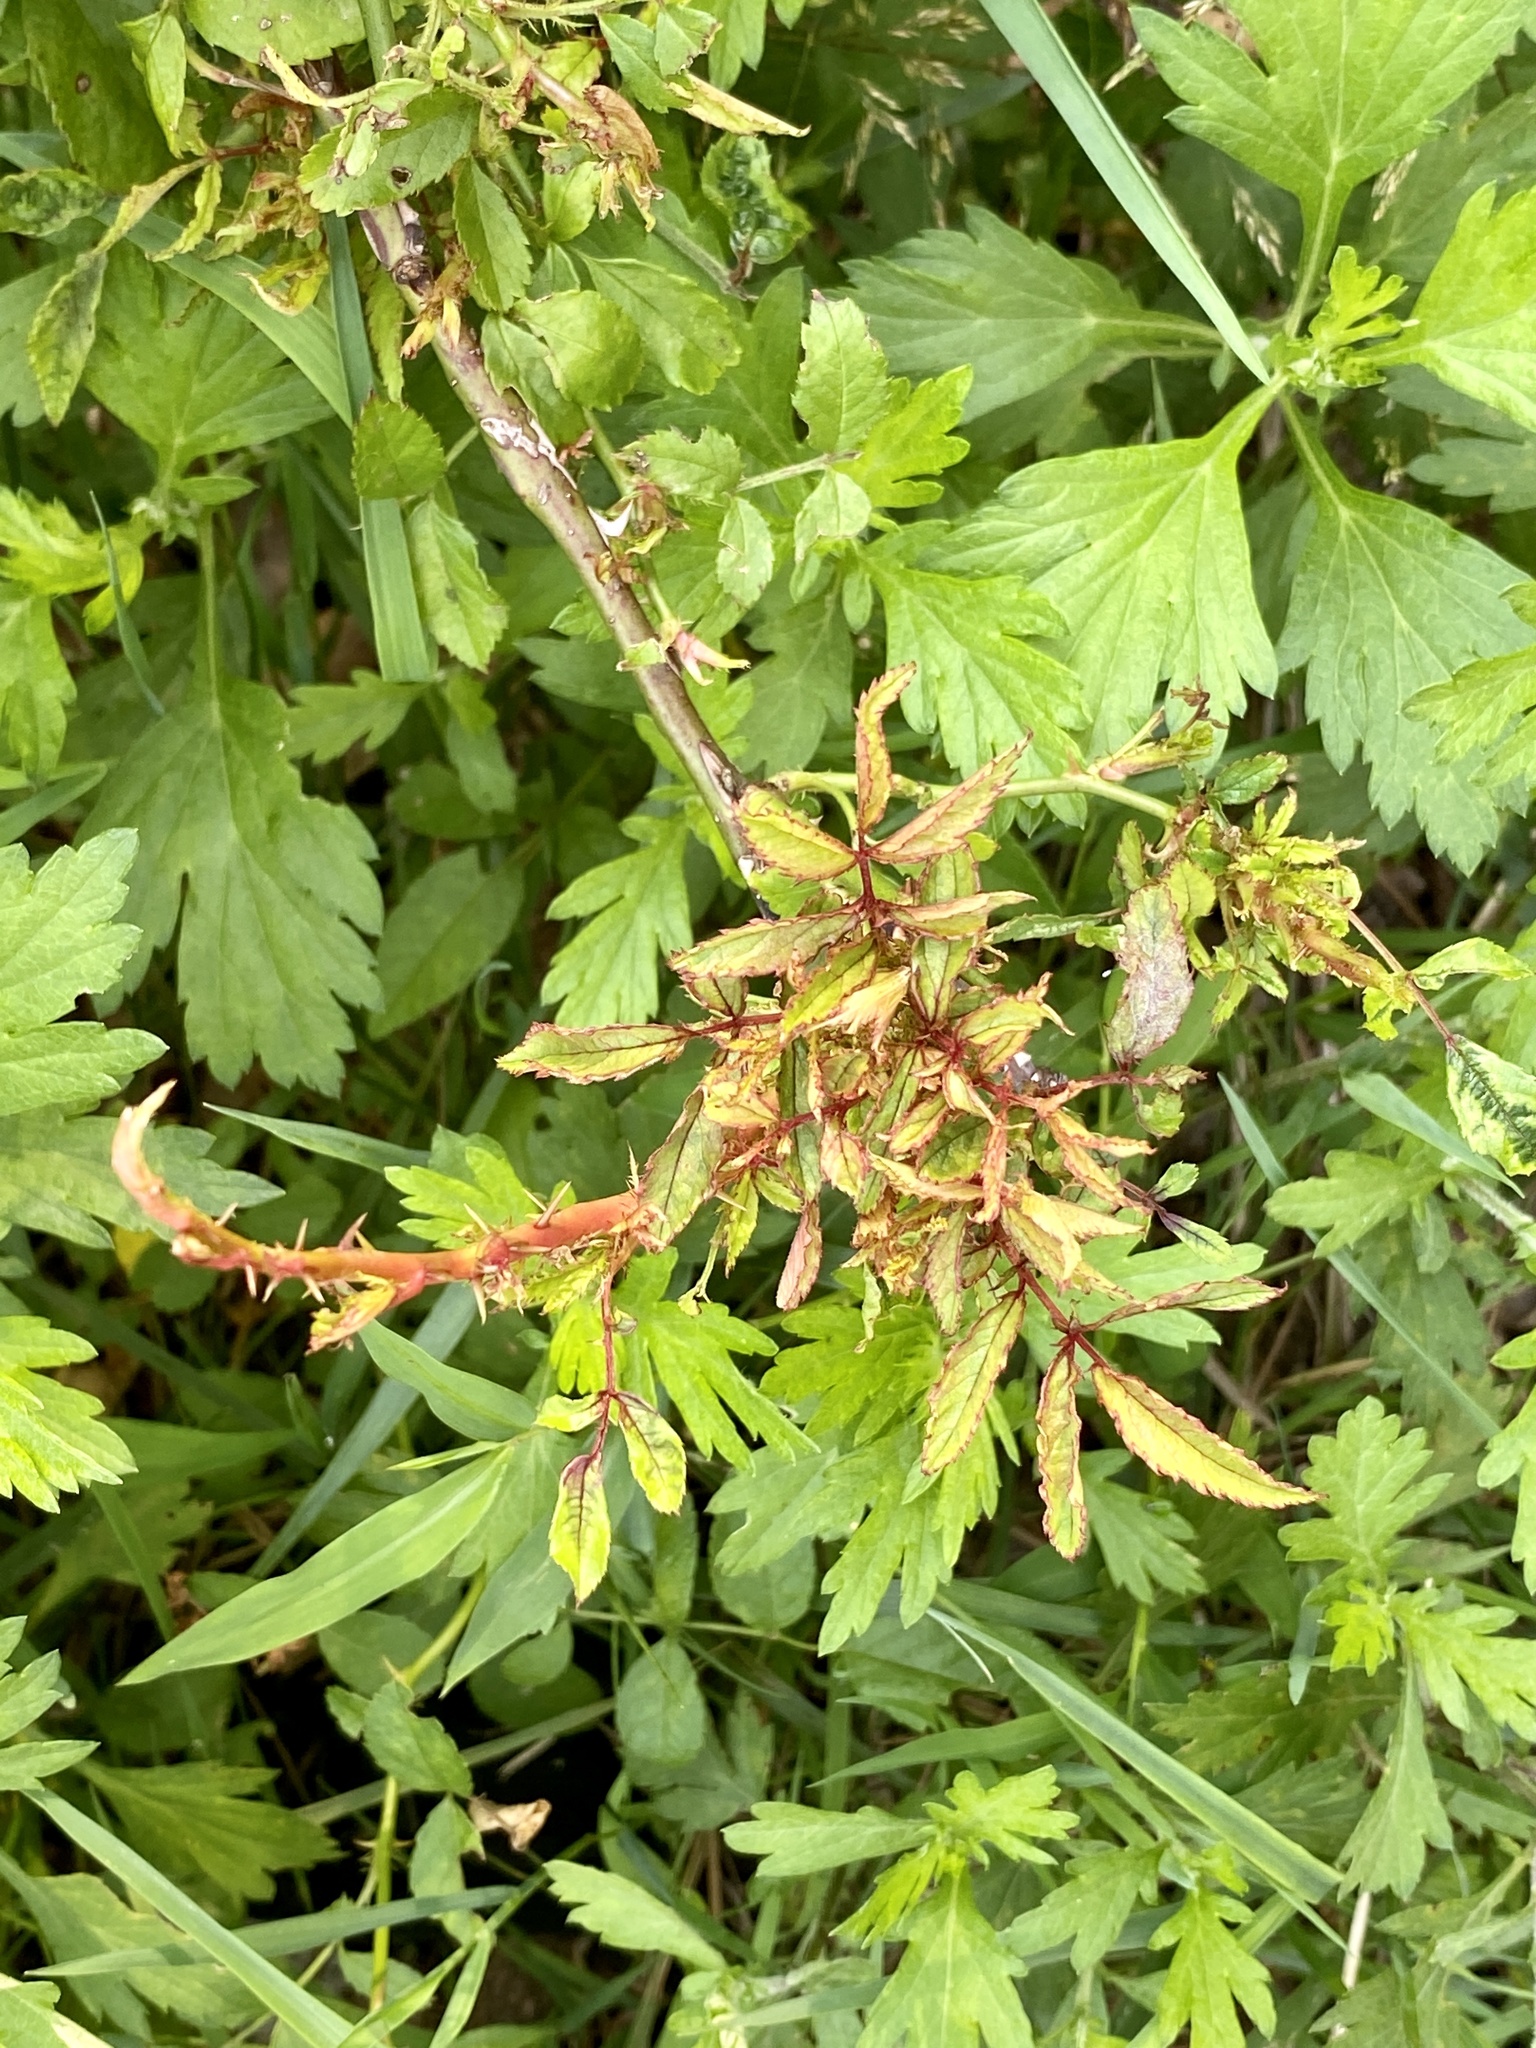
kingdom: Viruses
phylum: Negarnaviricota
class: Ellioviricetes
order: Bunyavirales
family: Fimoviridae
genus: Emaravirus
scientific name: Emaravirus rosae
